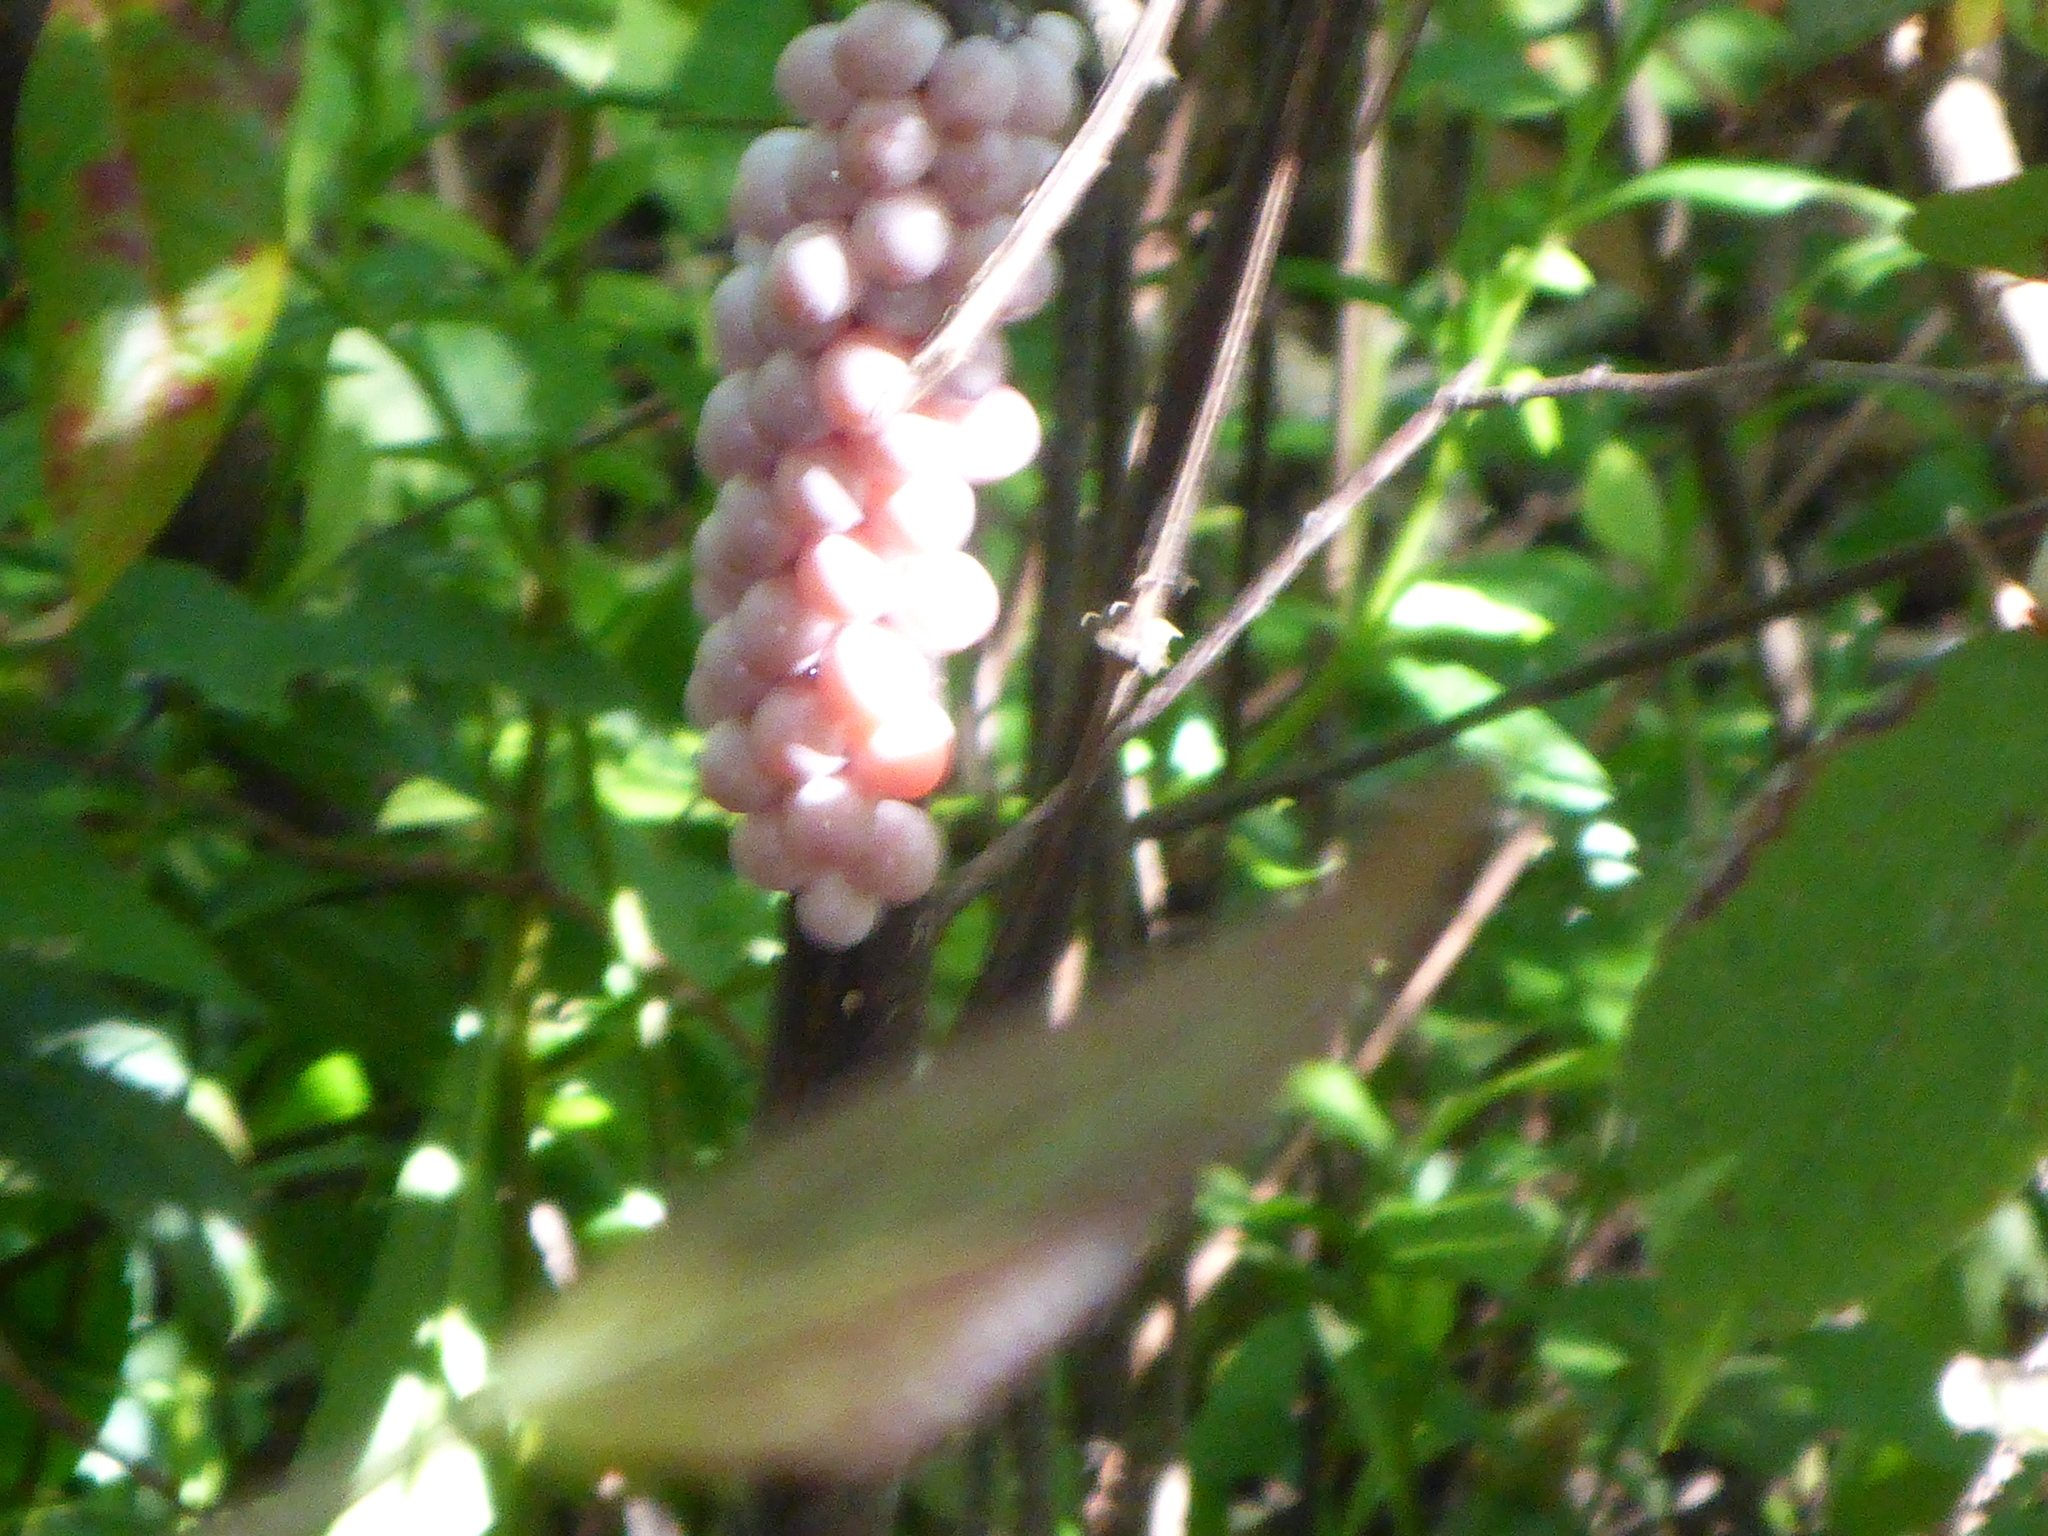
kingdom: Animalia
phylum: Mollusca
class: Gastropoda
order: Architaenioglossa
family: Ampullariidae
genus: Pomacea
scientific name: Pomacea paludosa
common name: Florida applesnail
